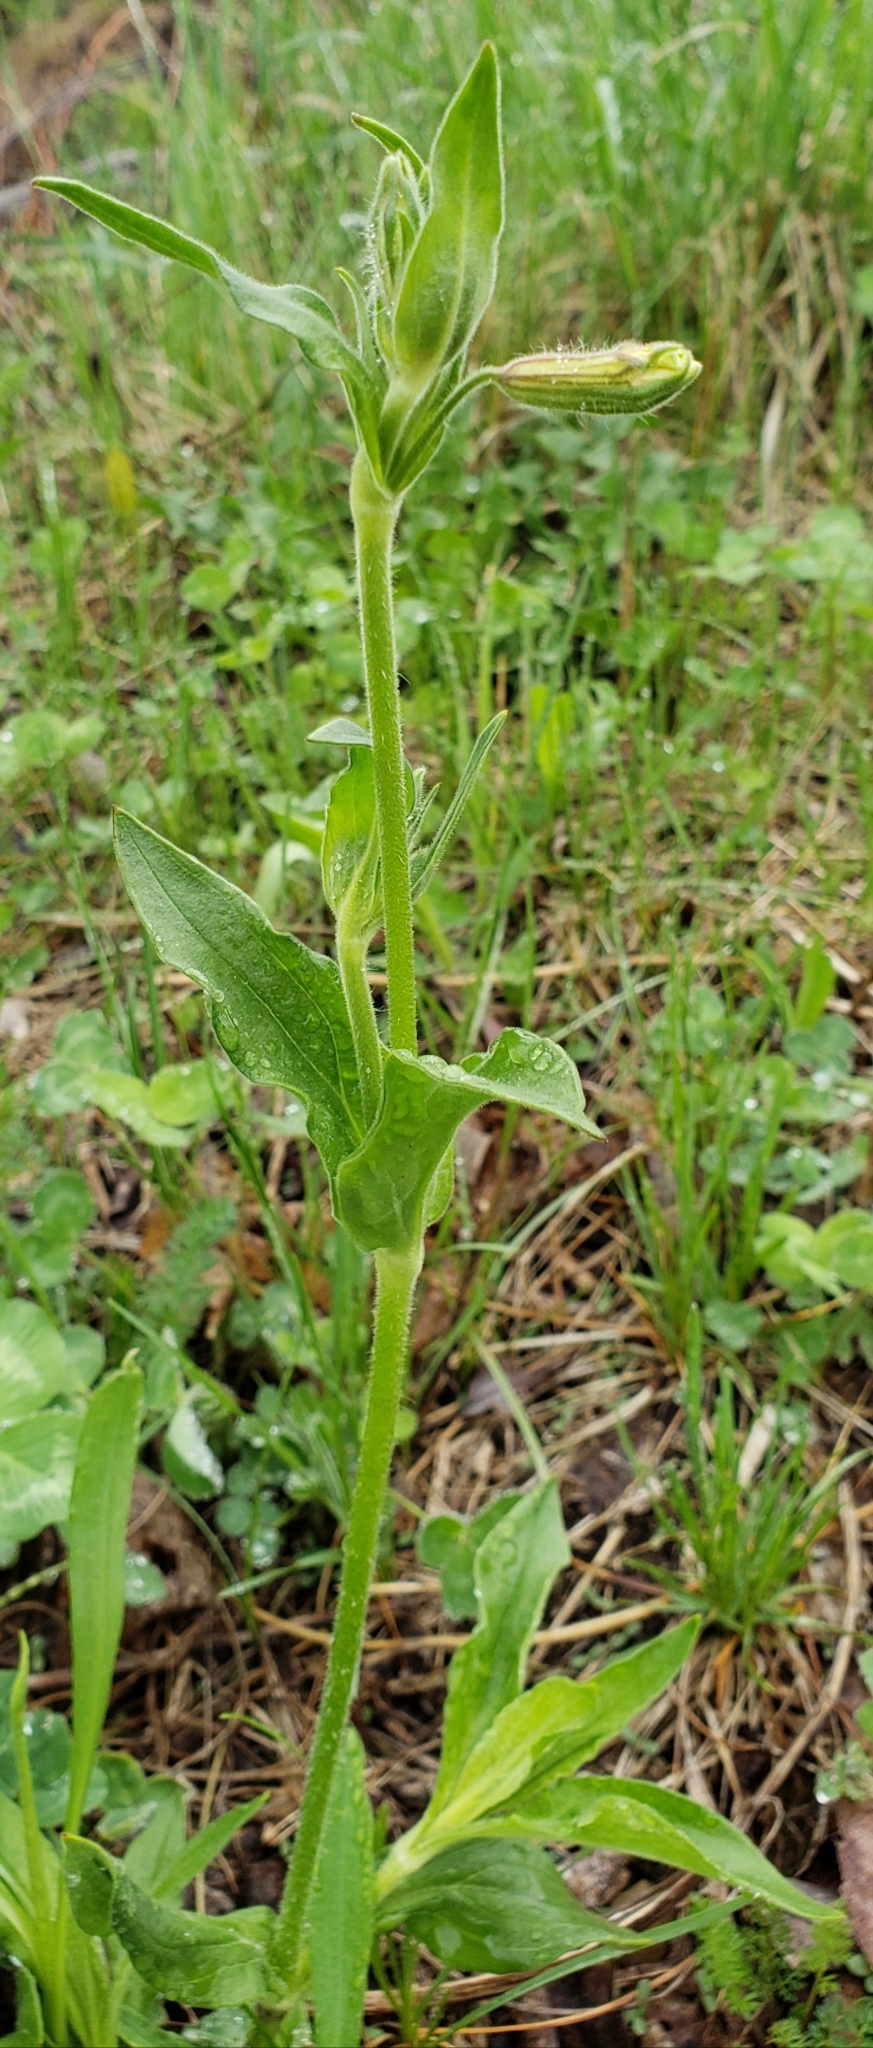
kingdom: Plantae
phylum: Tracheophyta
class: Magnoliopsida
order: Caryophyllales
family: Caryophyllaceae
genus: Silene
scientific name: Silene latifolia
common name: White campion
